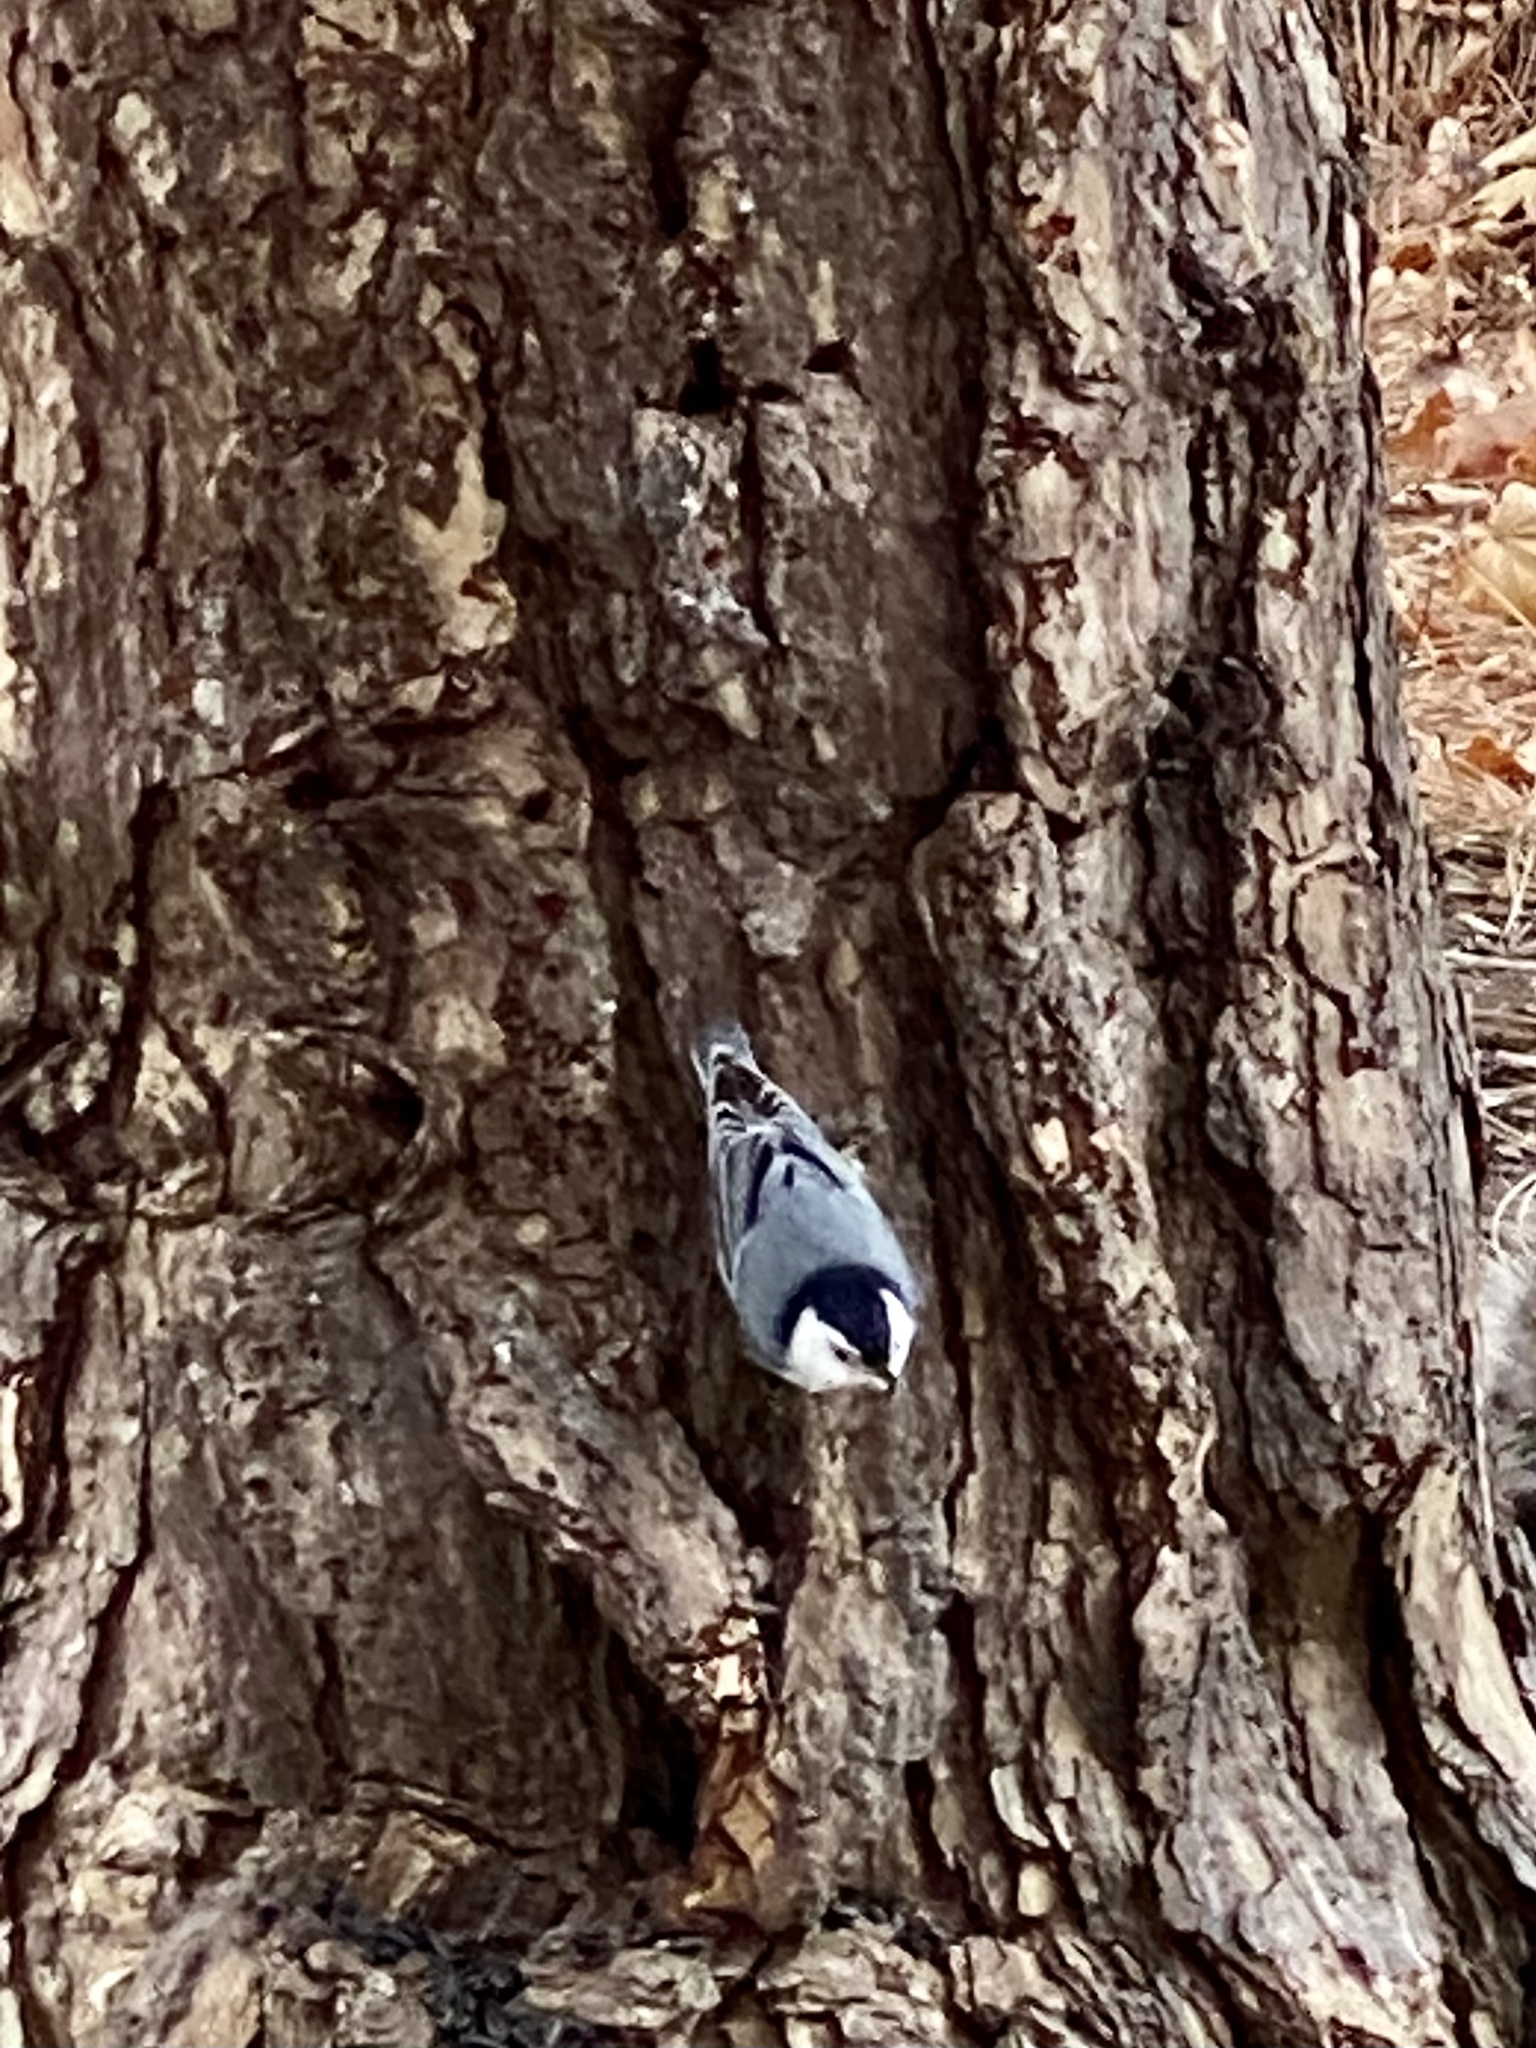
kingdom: Animalia
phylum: Chordata
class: Aves
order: Passeriformes
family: Sittidae
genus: Sitta
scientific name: Sitta carolinensis
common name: White-breasted nuthatch
